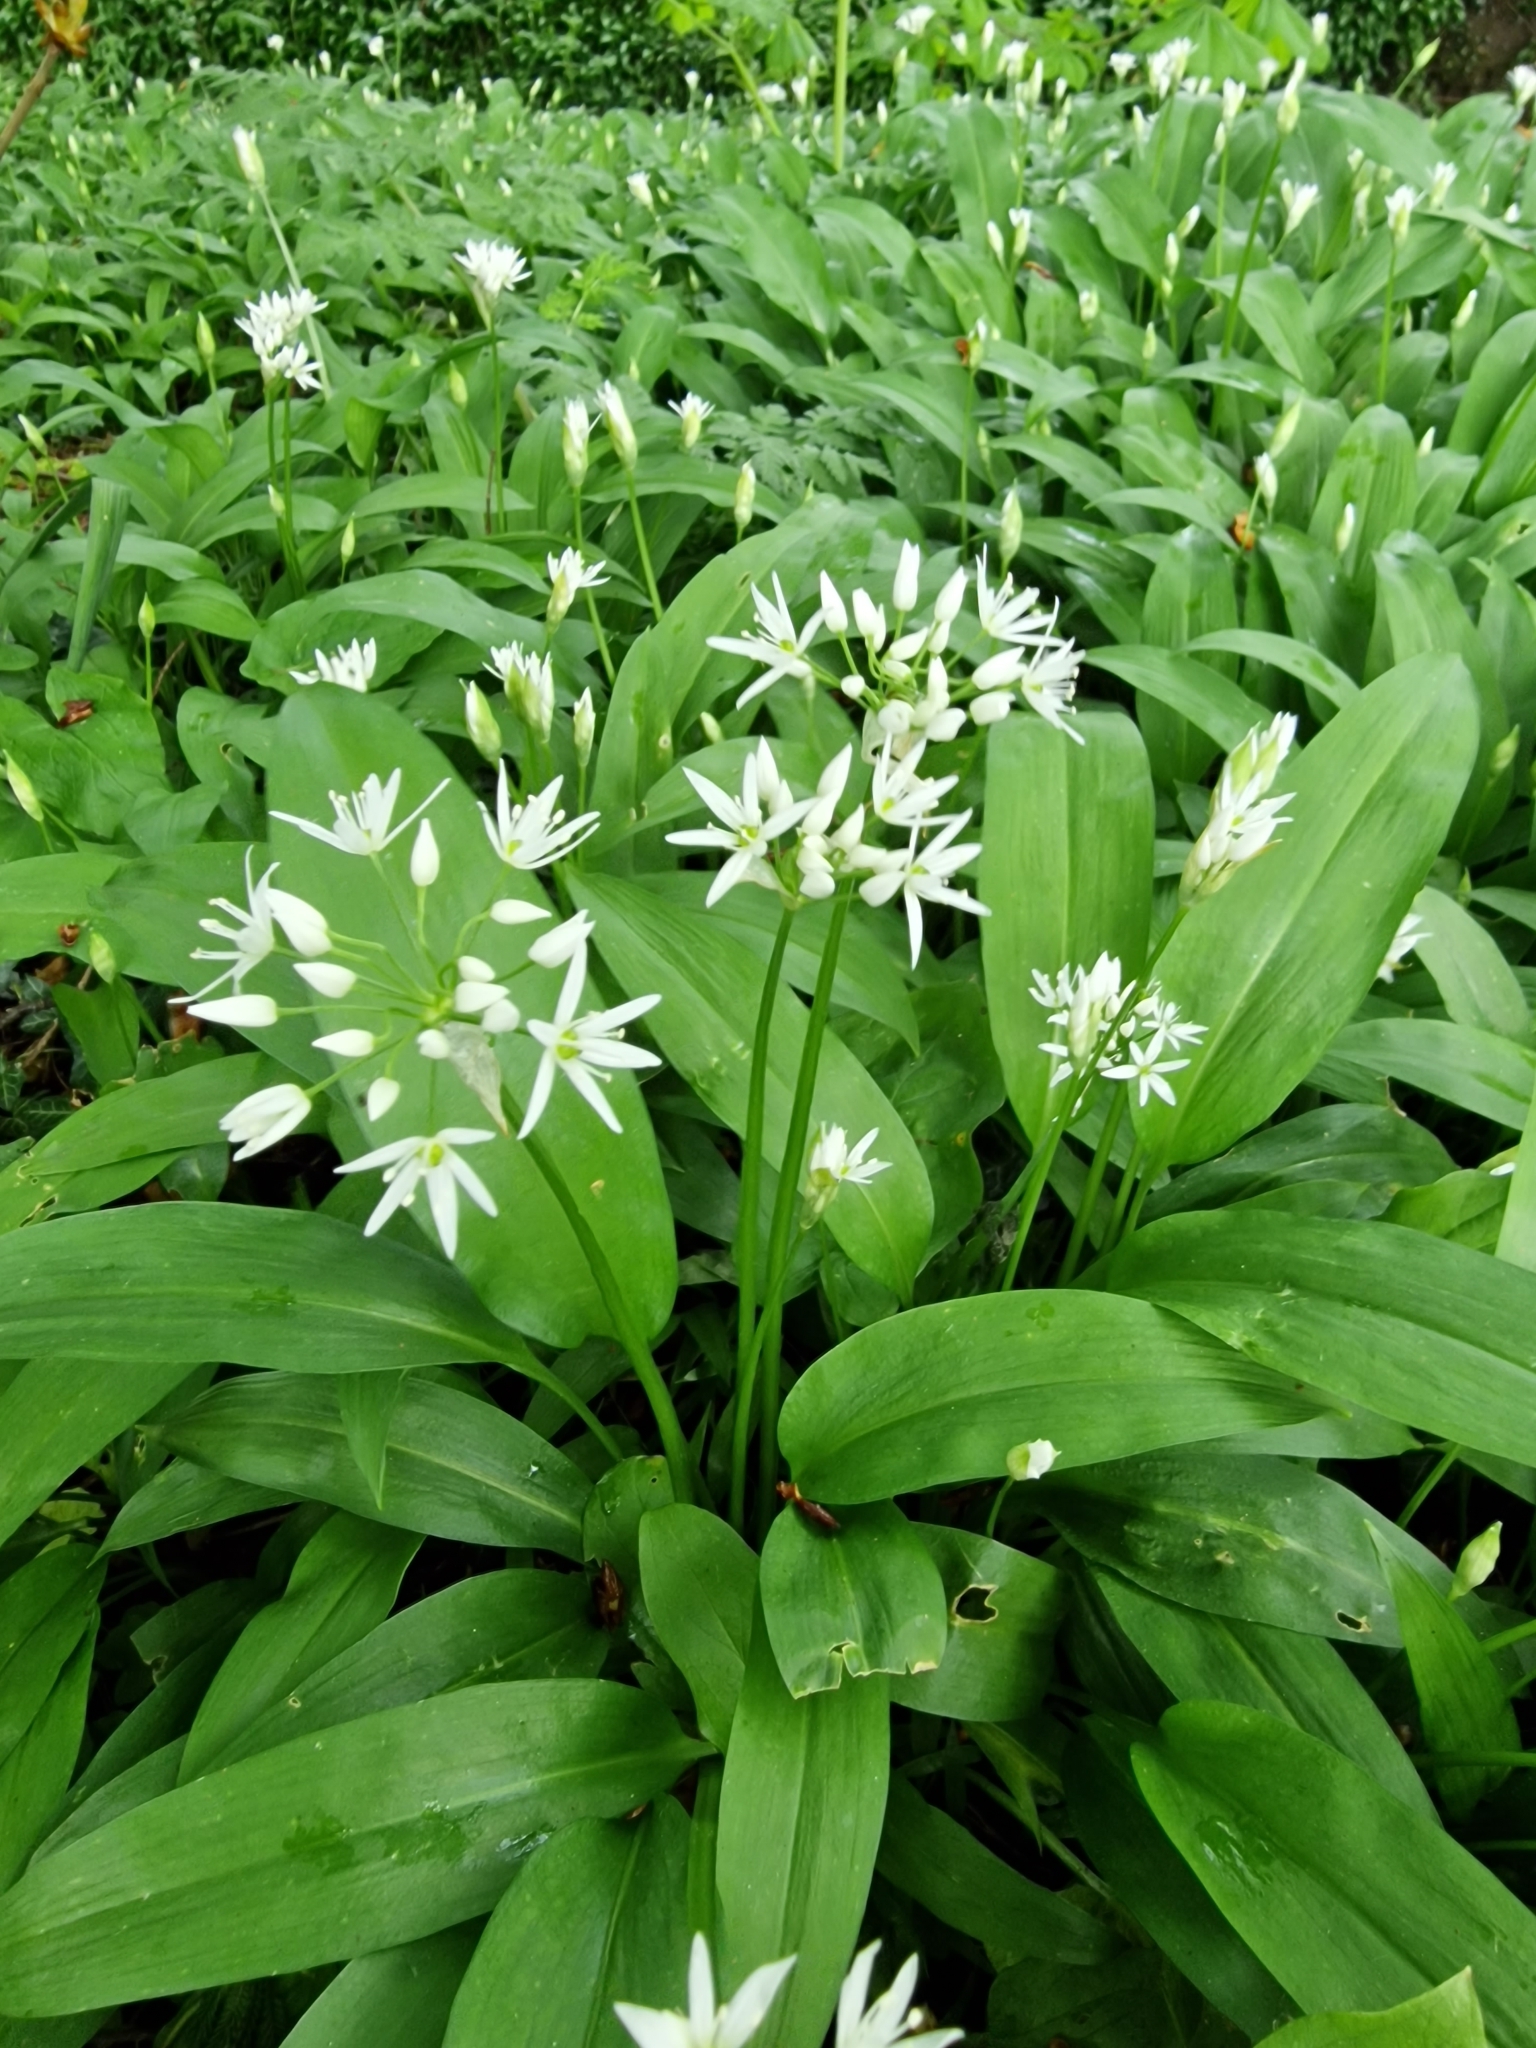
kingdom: Plantae
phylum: Tracheophyta
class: Liliopsida
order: Asparagales
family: Amaryllidaceae
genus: Allium
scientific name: Allium ursinum
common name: Ramsons
